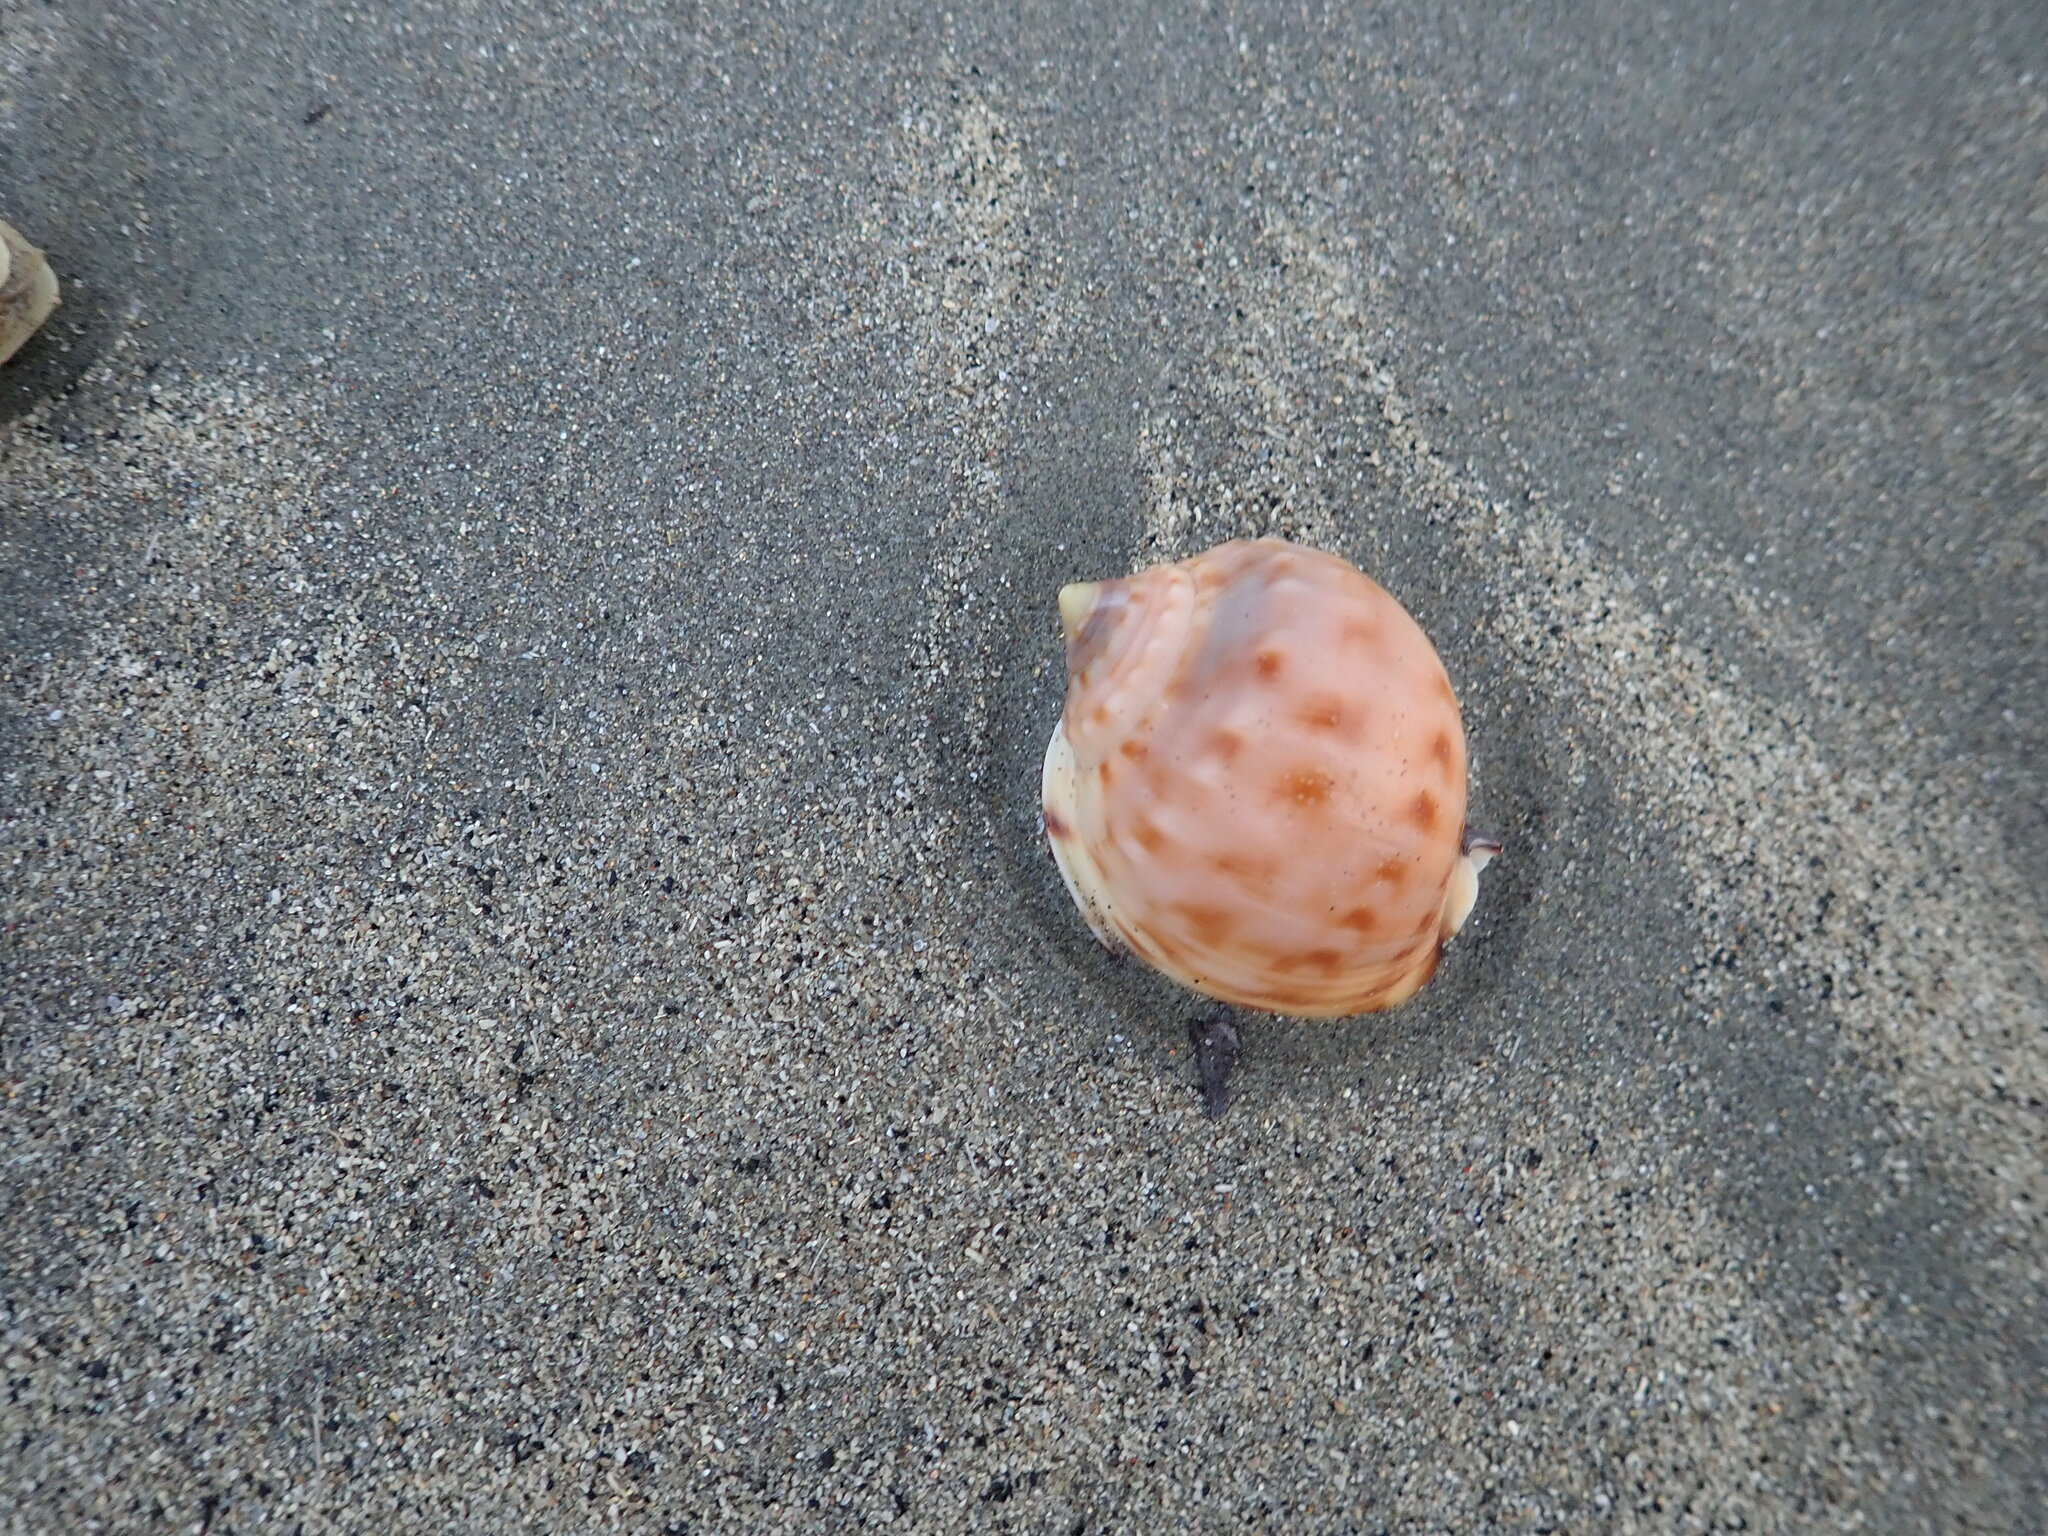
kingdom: Animalia
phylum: Mollusca
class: Gastropoda
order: Littorinimorpha
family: Cassidae
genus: Semicassis
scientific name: Semicassis pyrum
